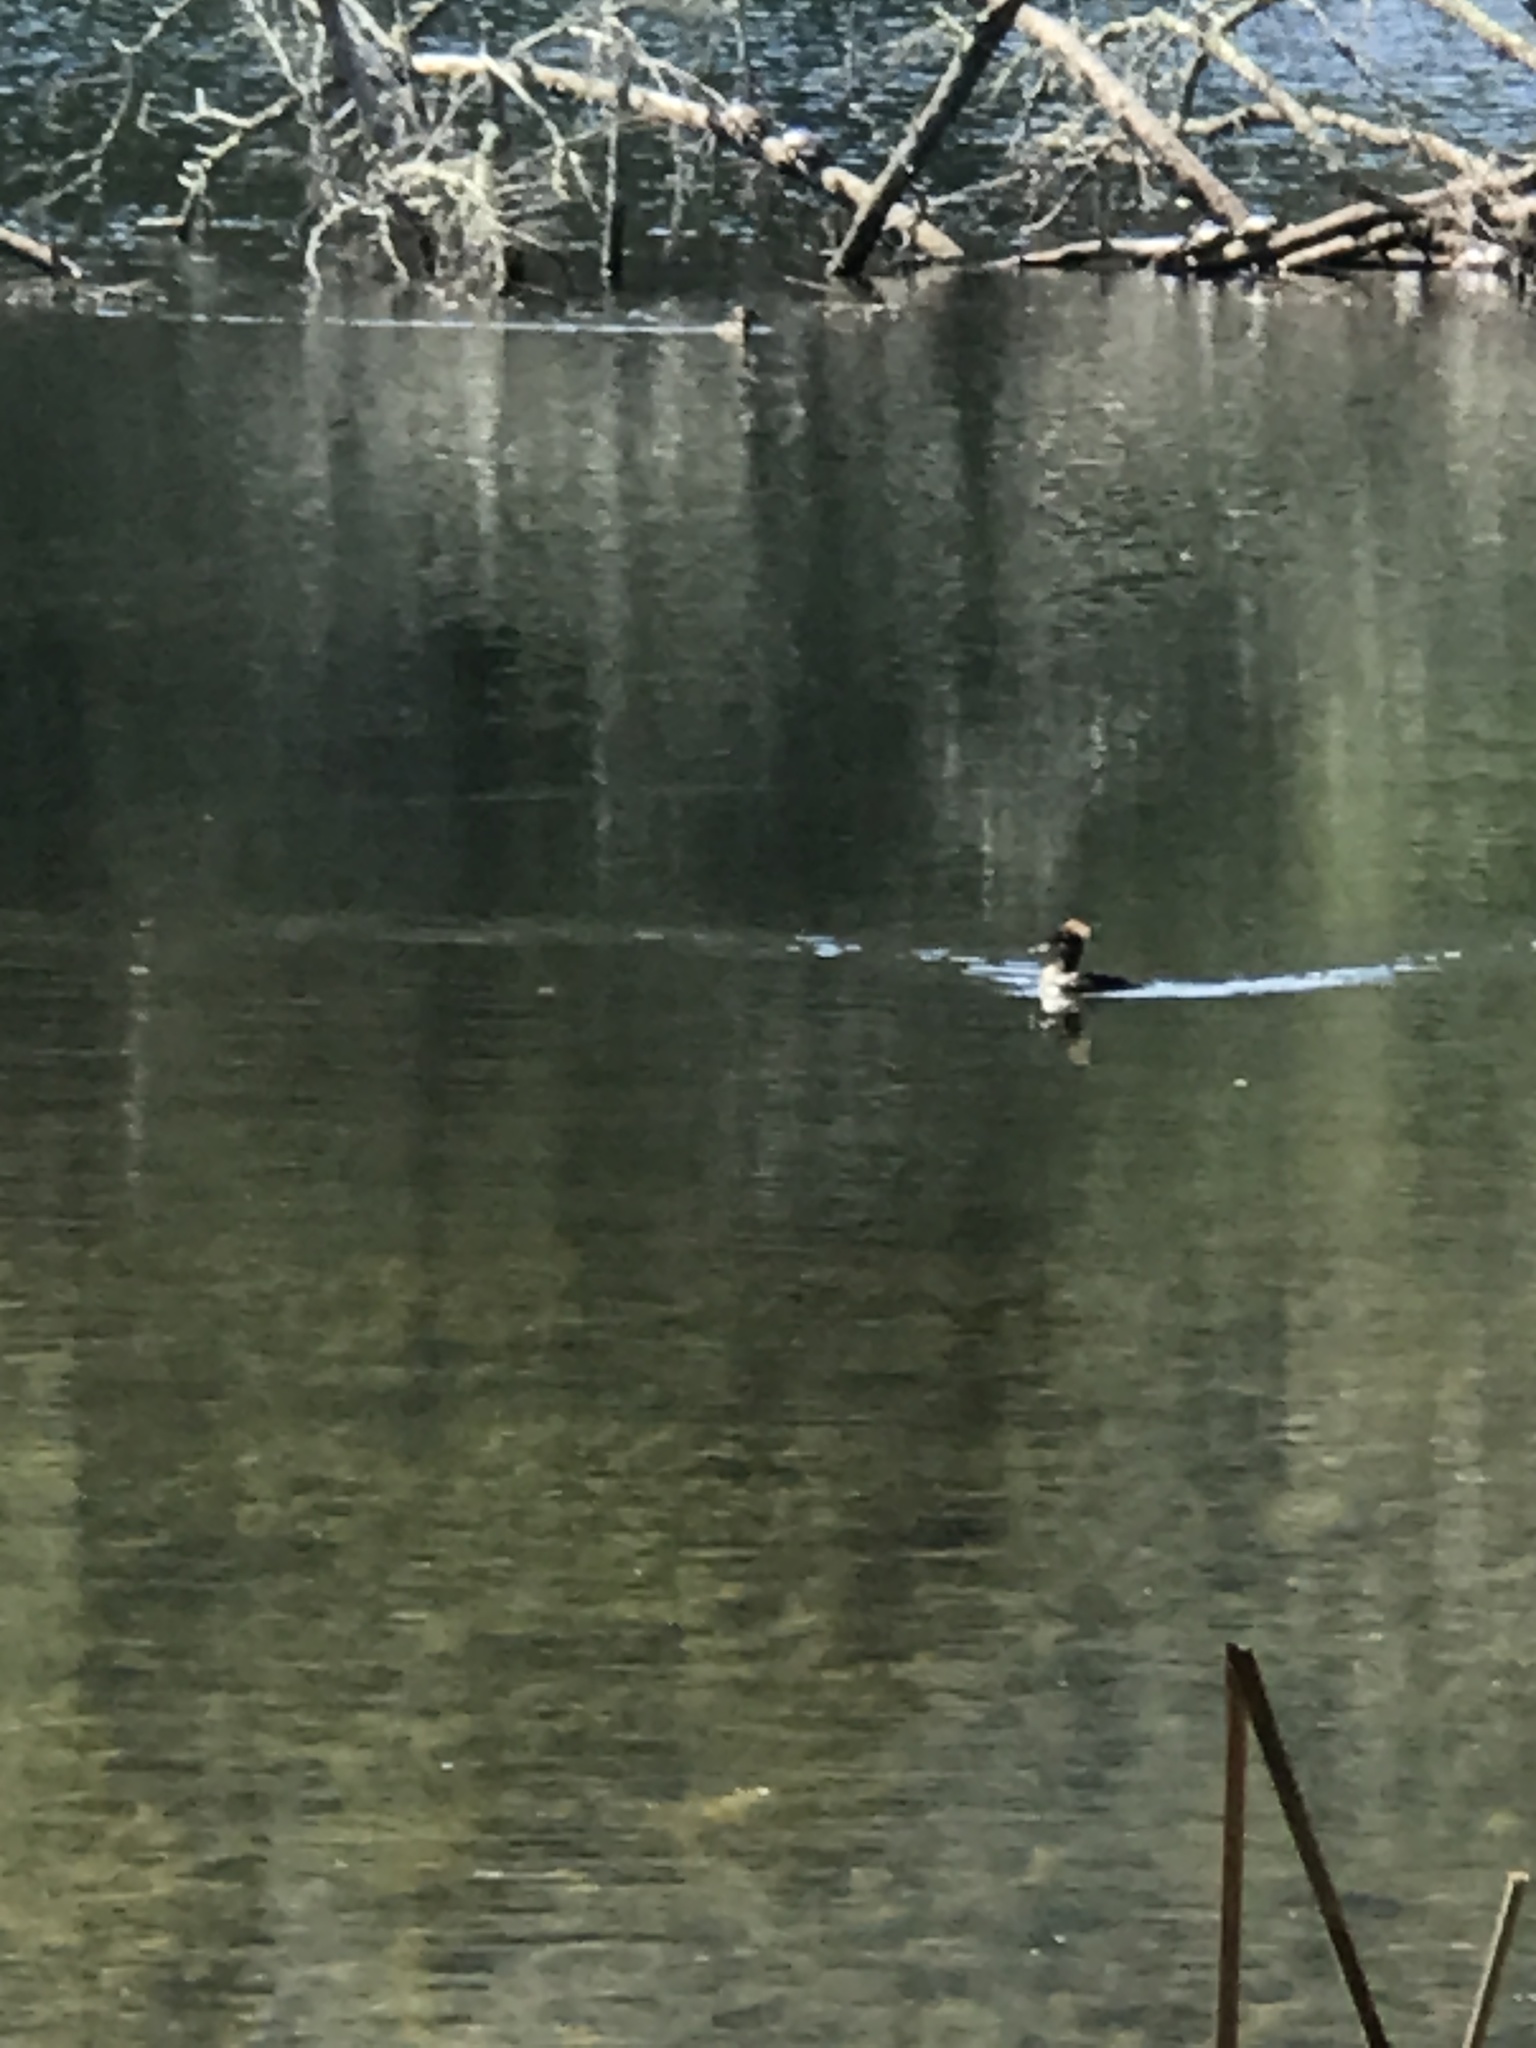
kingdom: Animalia
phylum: Chordata
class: Aves
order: Anseriformes
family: Anatidae
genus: Lophodytes
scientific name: Lophodytes cucullatus
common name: Hooded merganser
